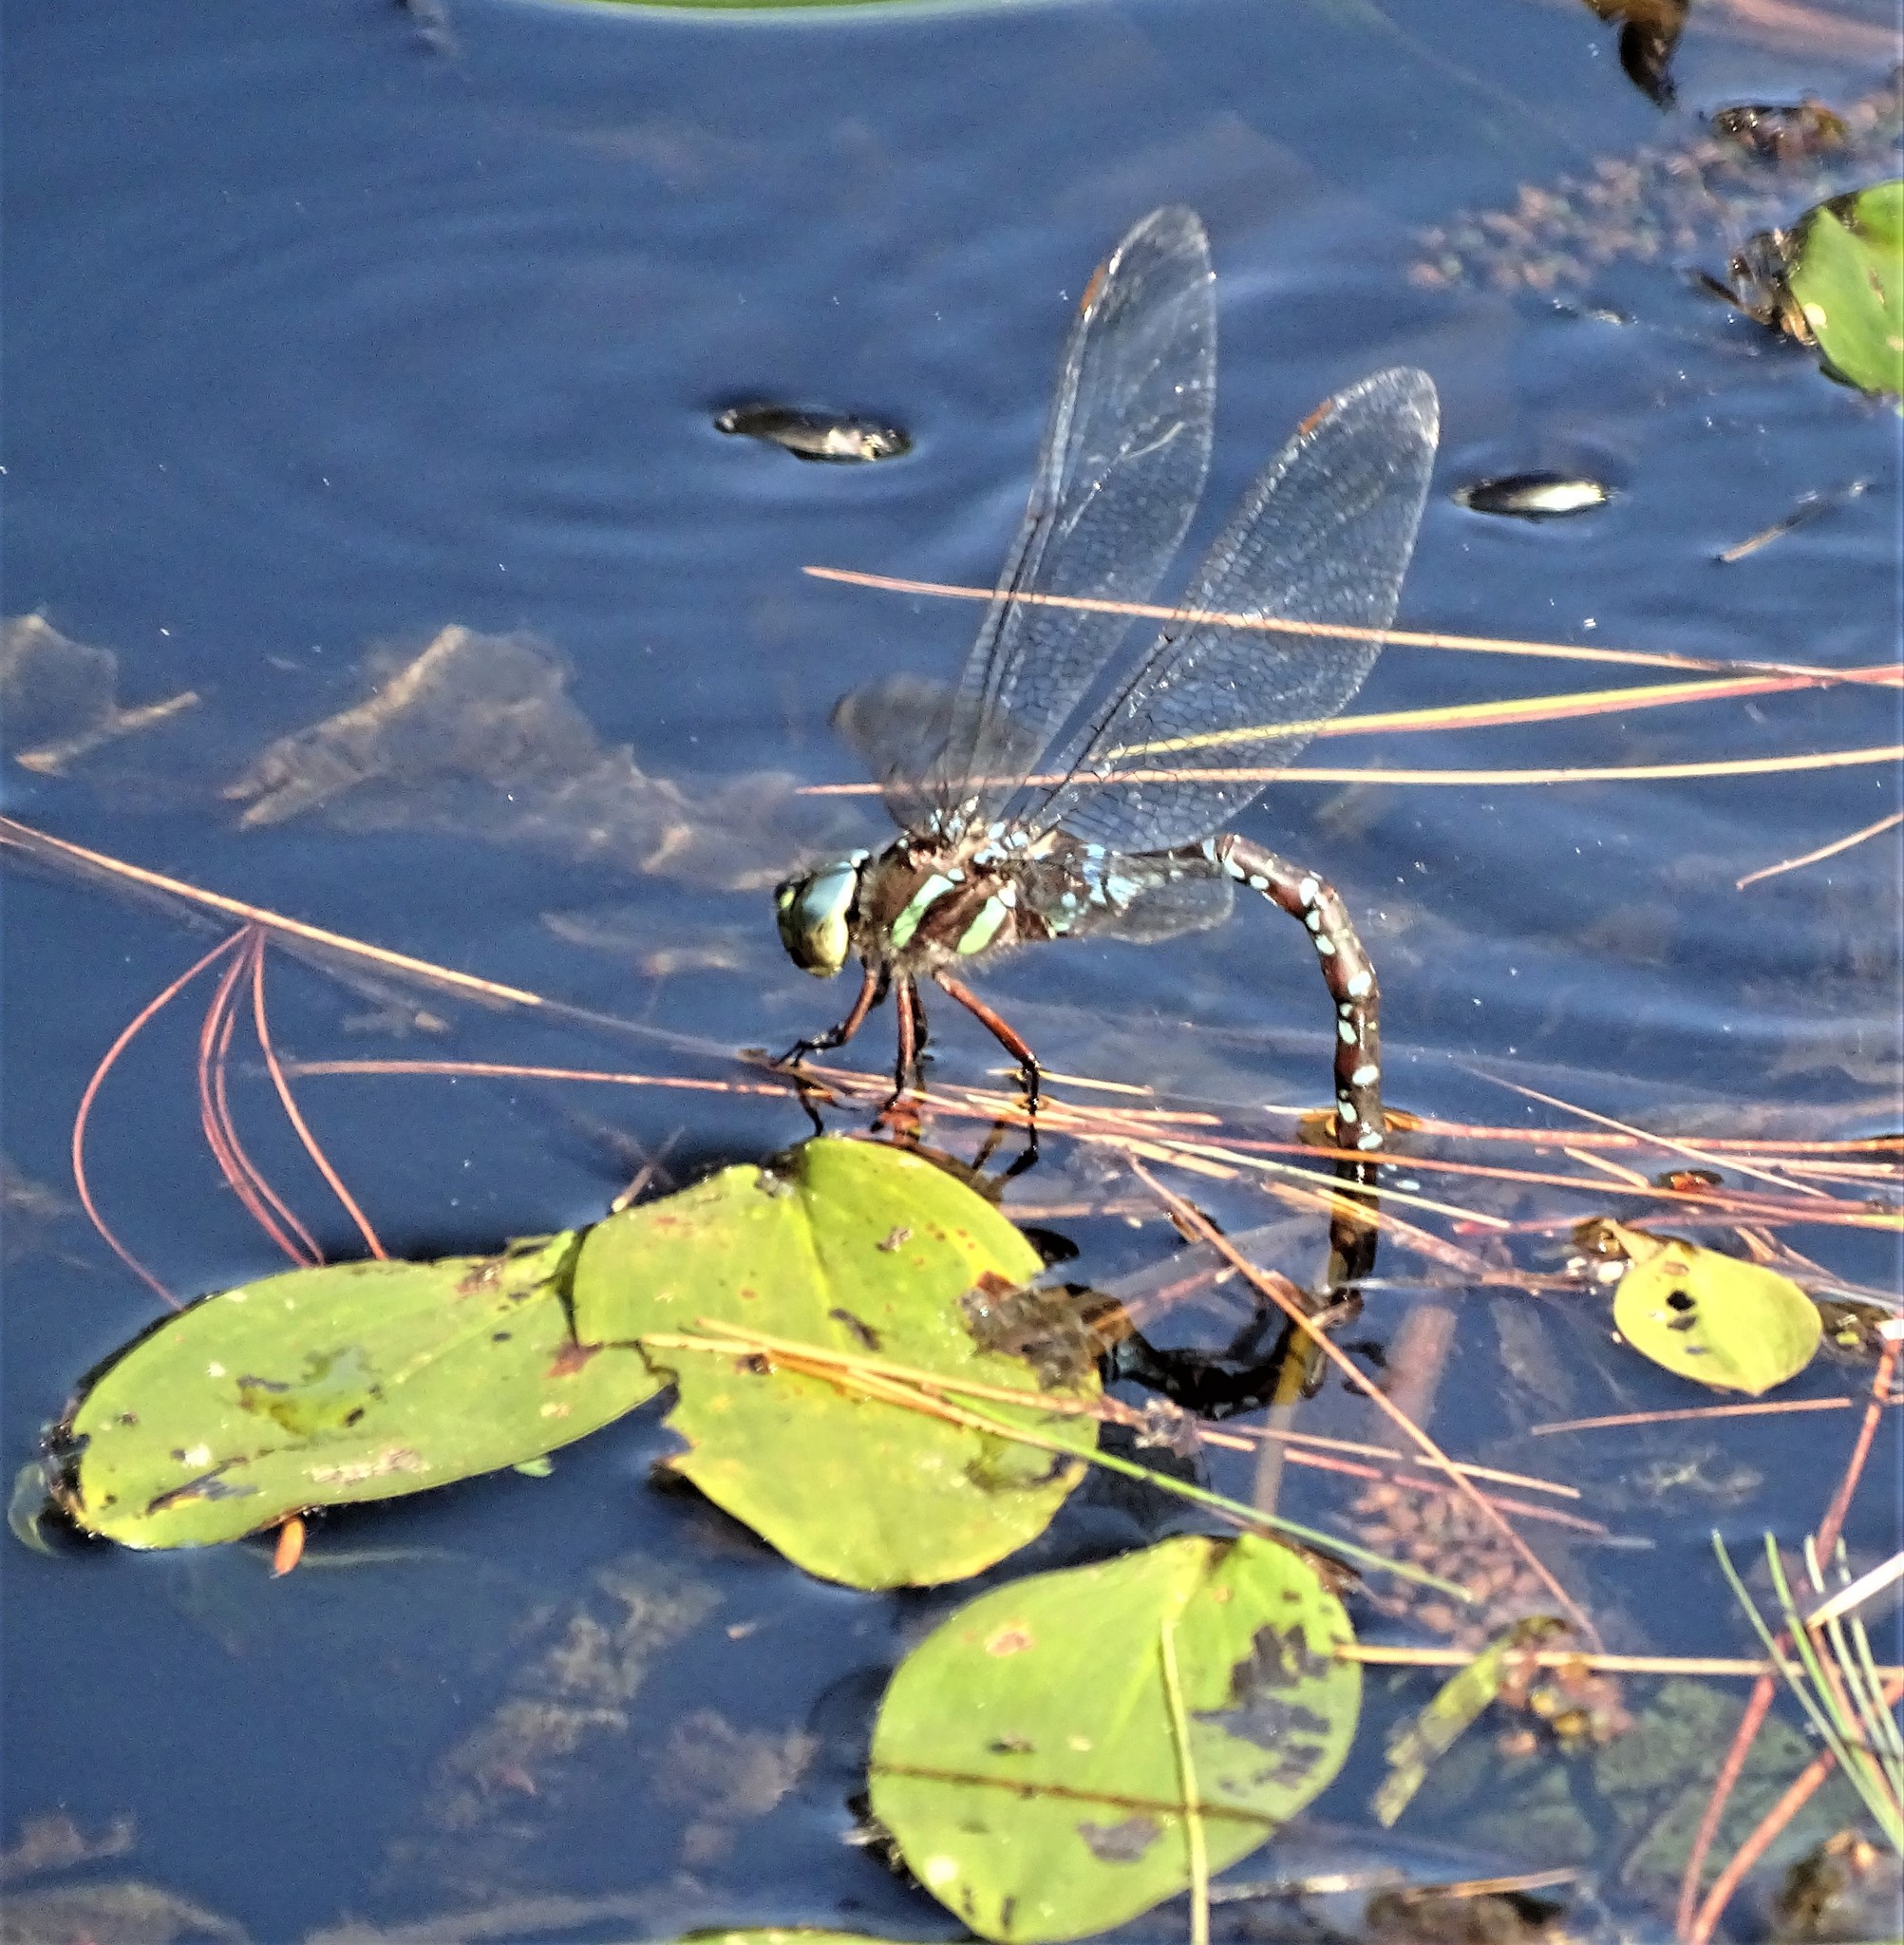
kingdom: Animalia
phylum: Arthropoda
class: Insecta
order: Odonata
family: Aeshnidae
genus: Aeshna
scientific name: Aeshna tuberculifera
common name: Aeschne à tubercules
